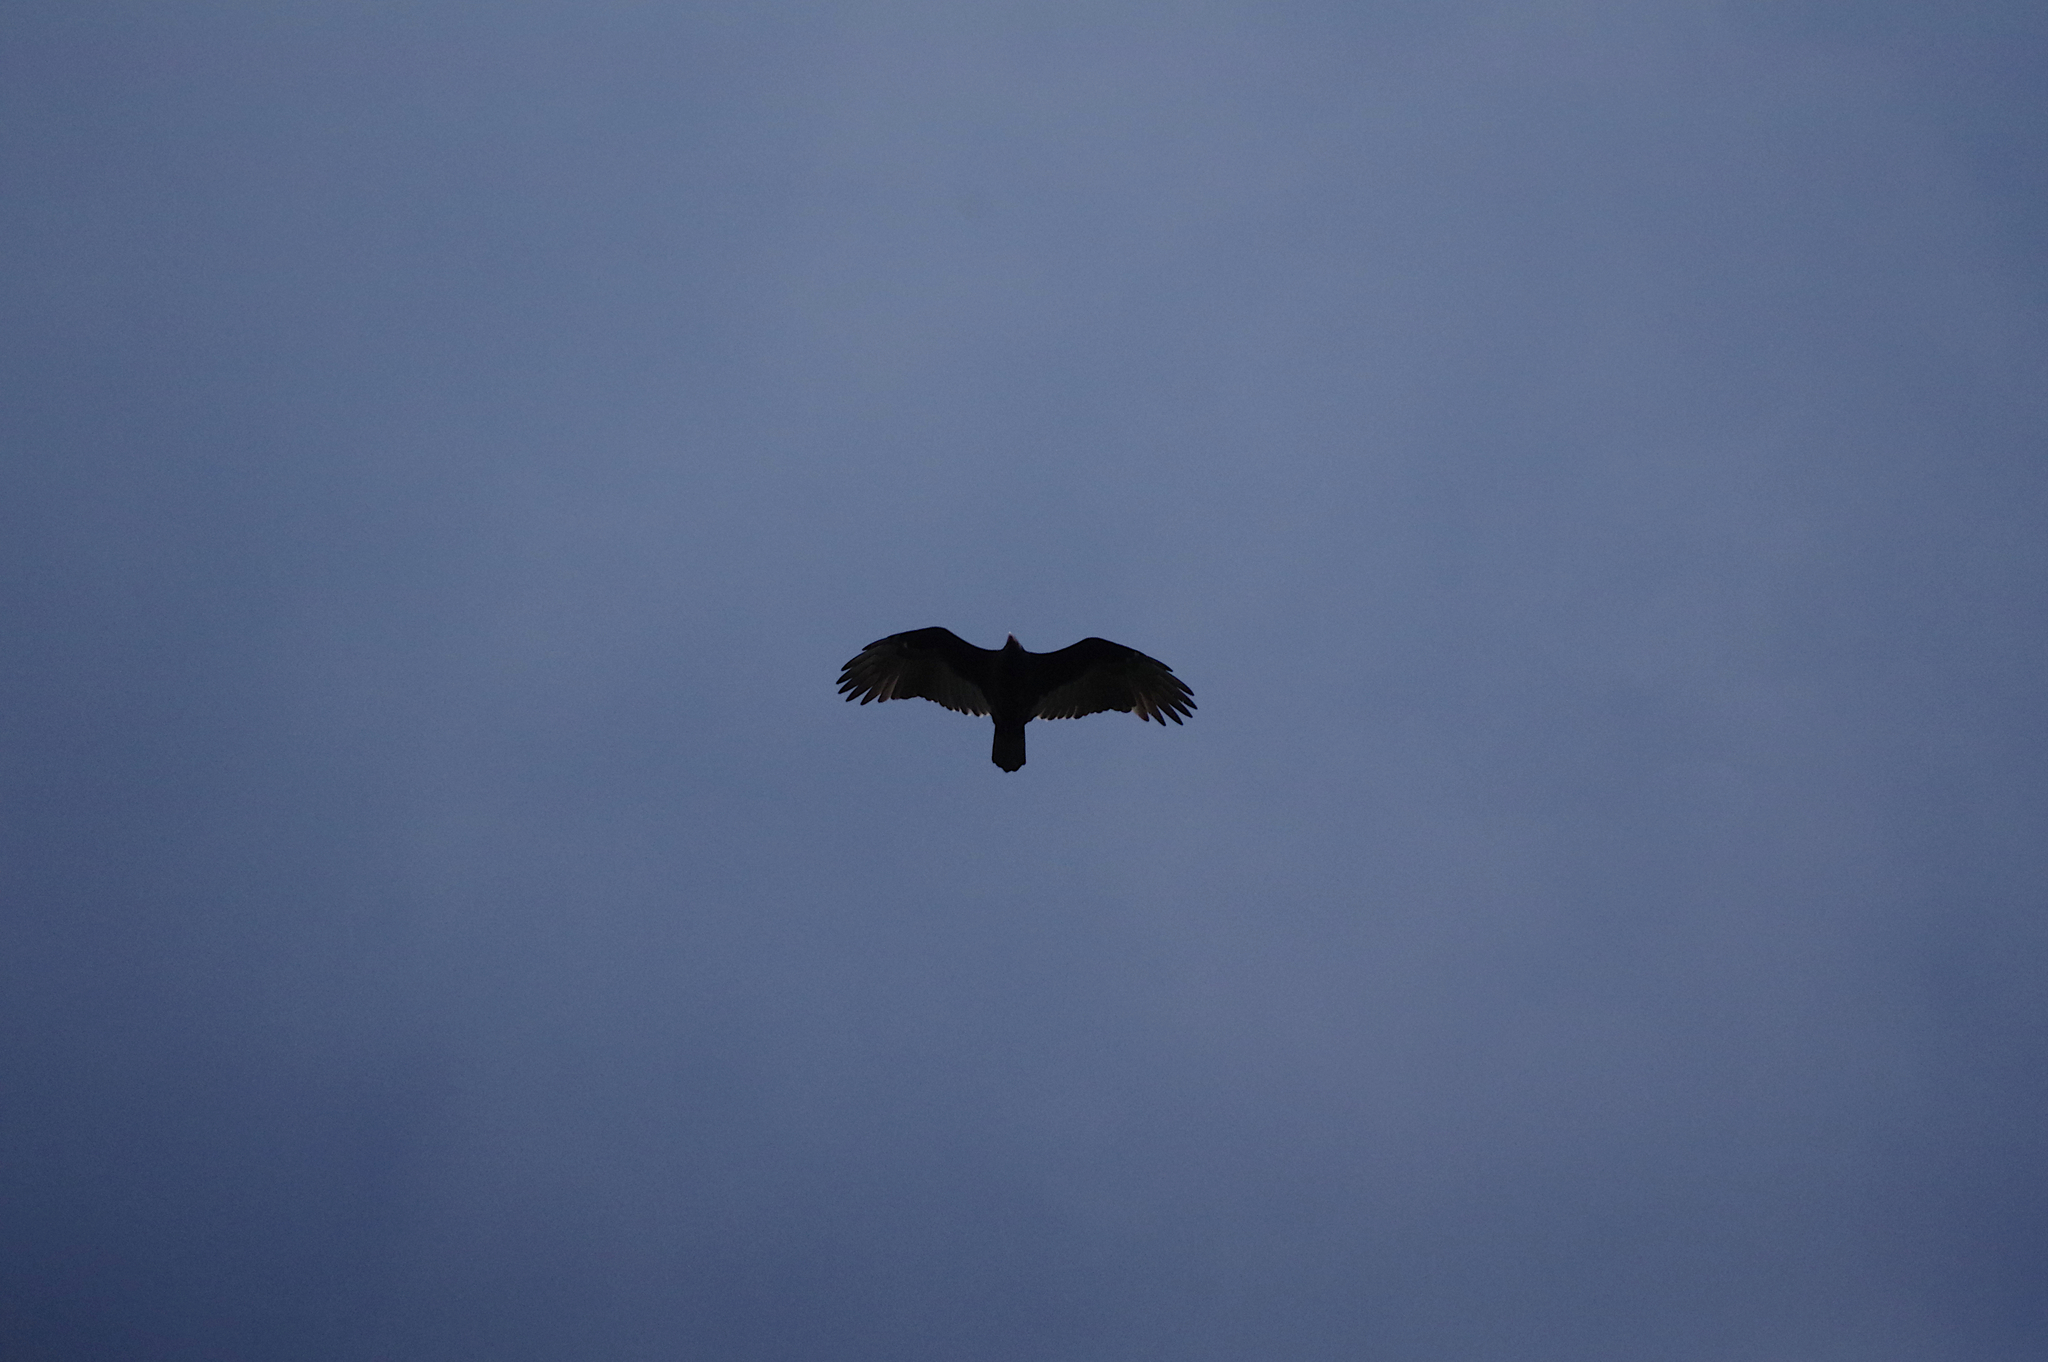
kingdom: Animalia
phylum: Chordata
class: Aves
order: Accipitriformes
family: Cathartidae
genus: Cathartes
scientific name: Cathartes aura
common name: Turkey vulture
